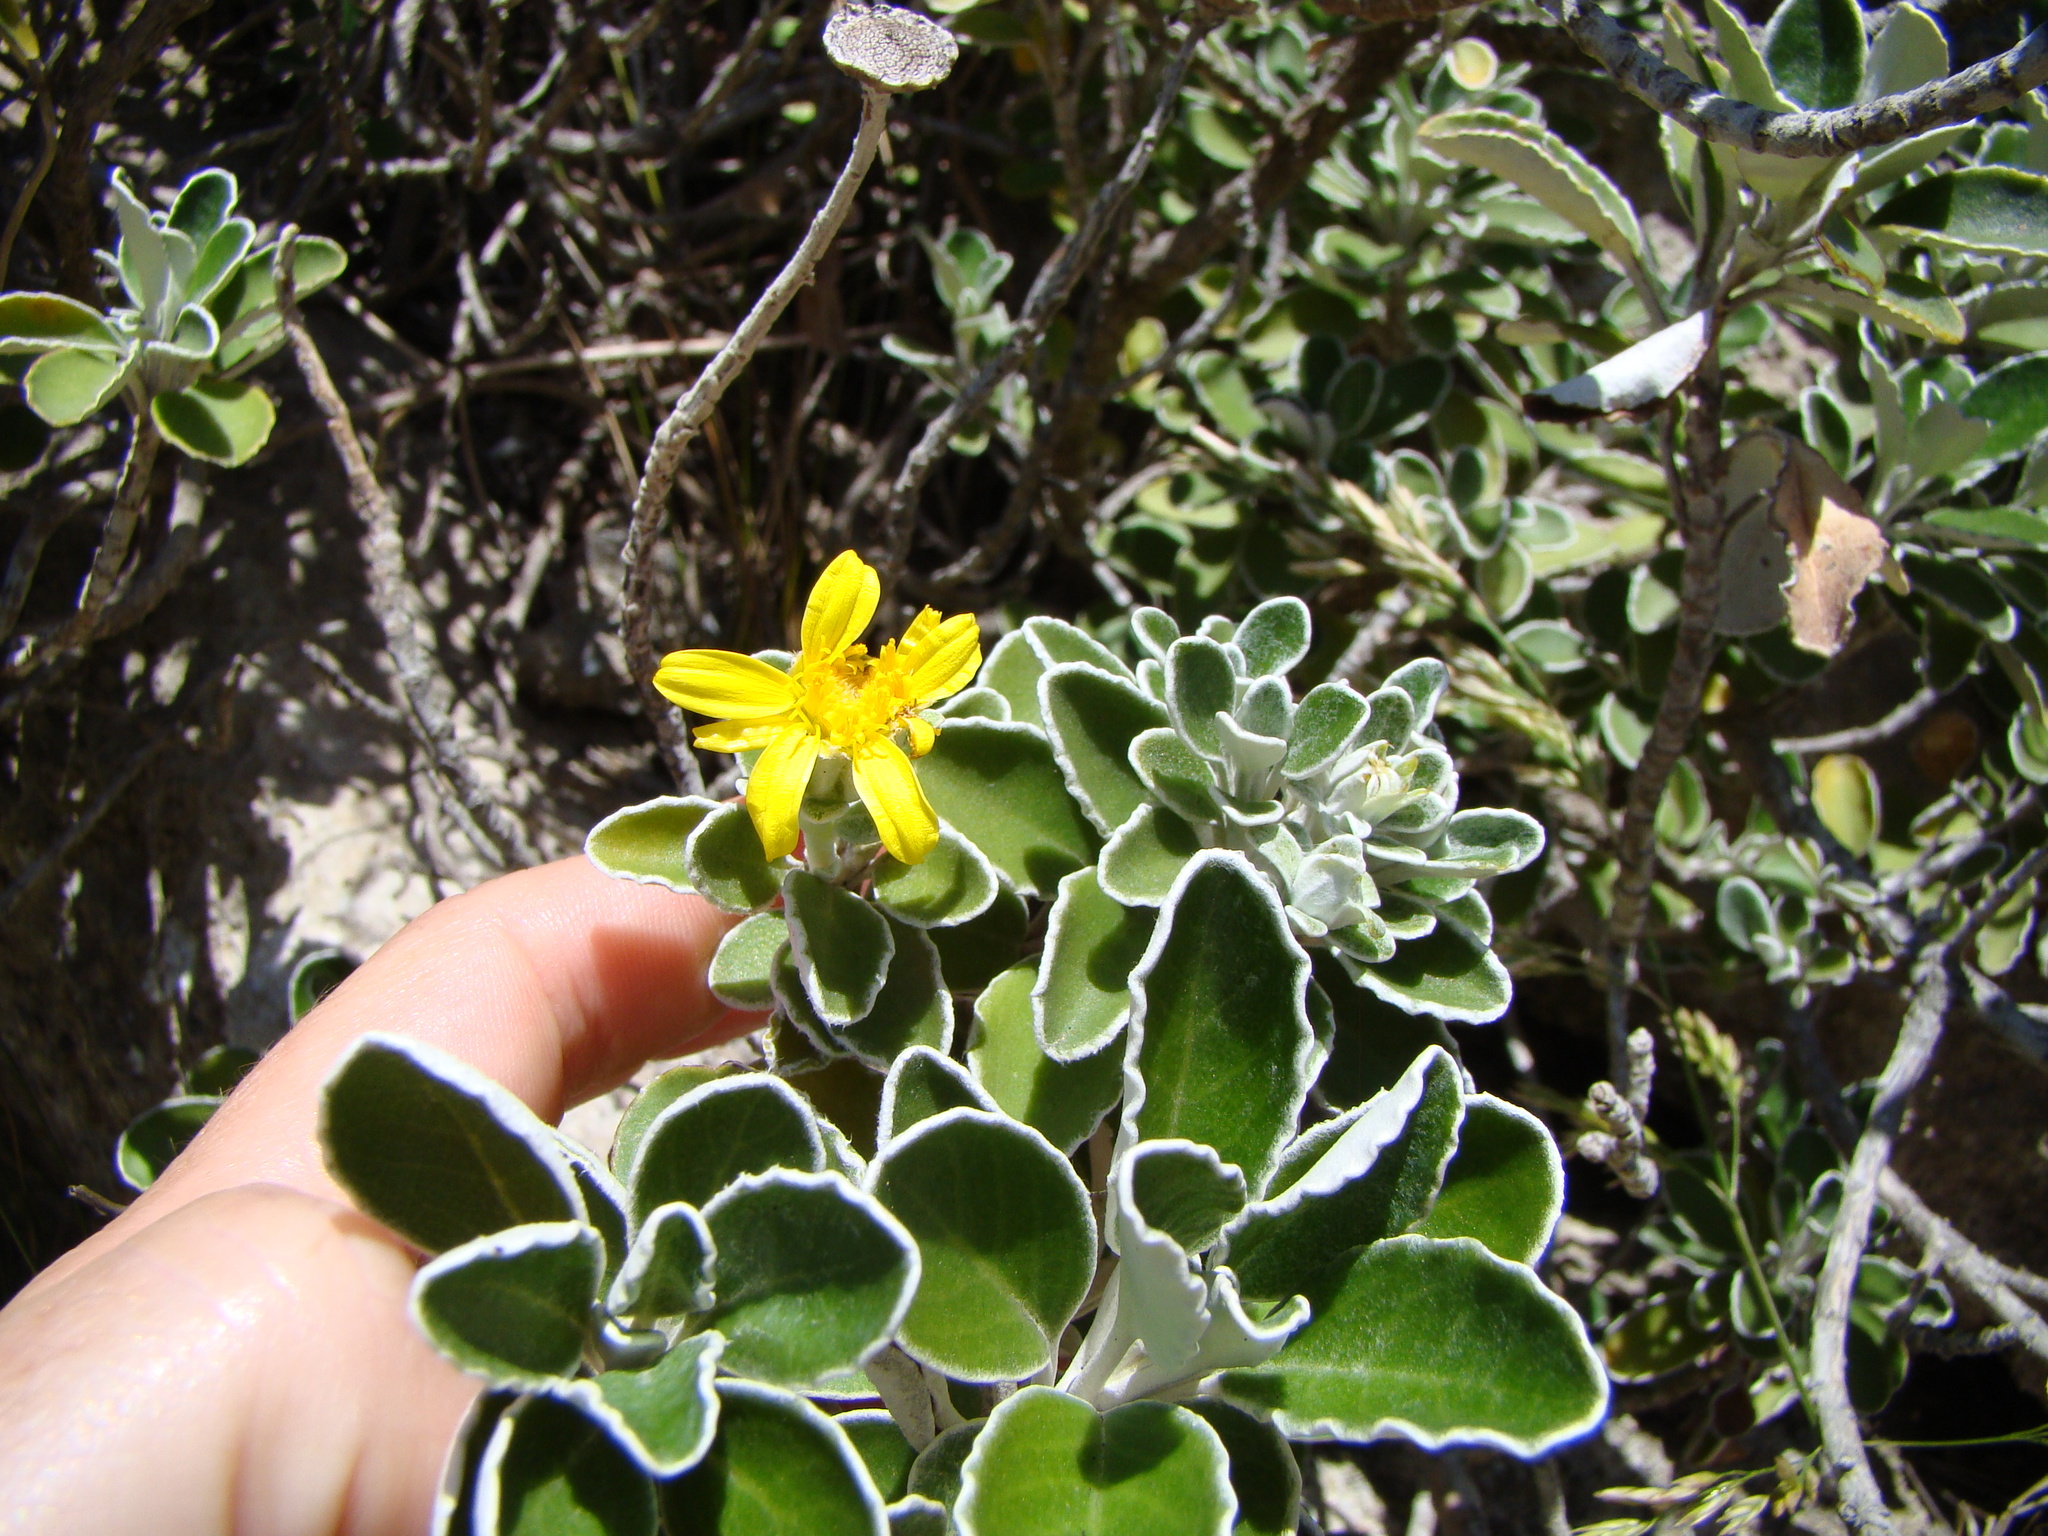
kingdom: Plantae
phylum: Tracheophyta
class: Magnoliopsida
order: Asterales
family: Asteraceae
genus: Brachyglottis
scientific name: Brachyglottis compacta
